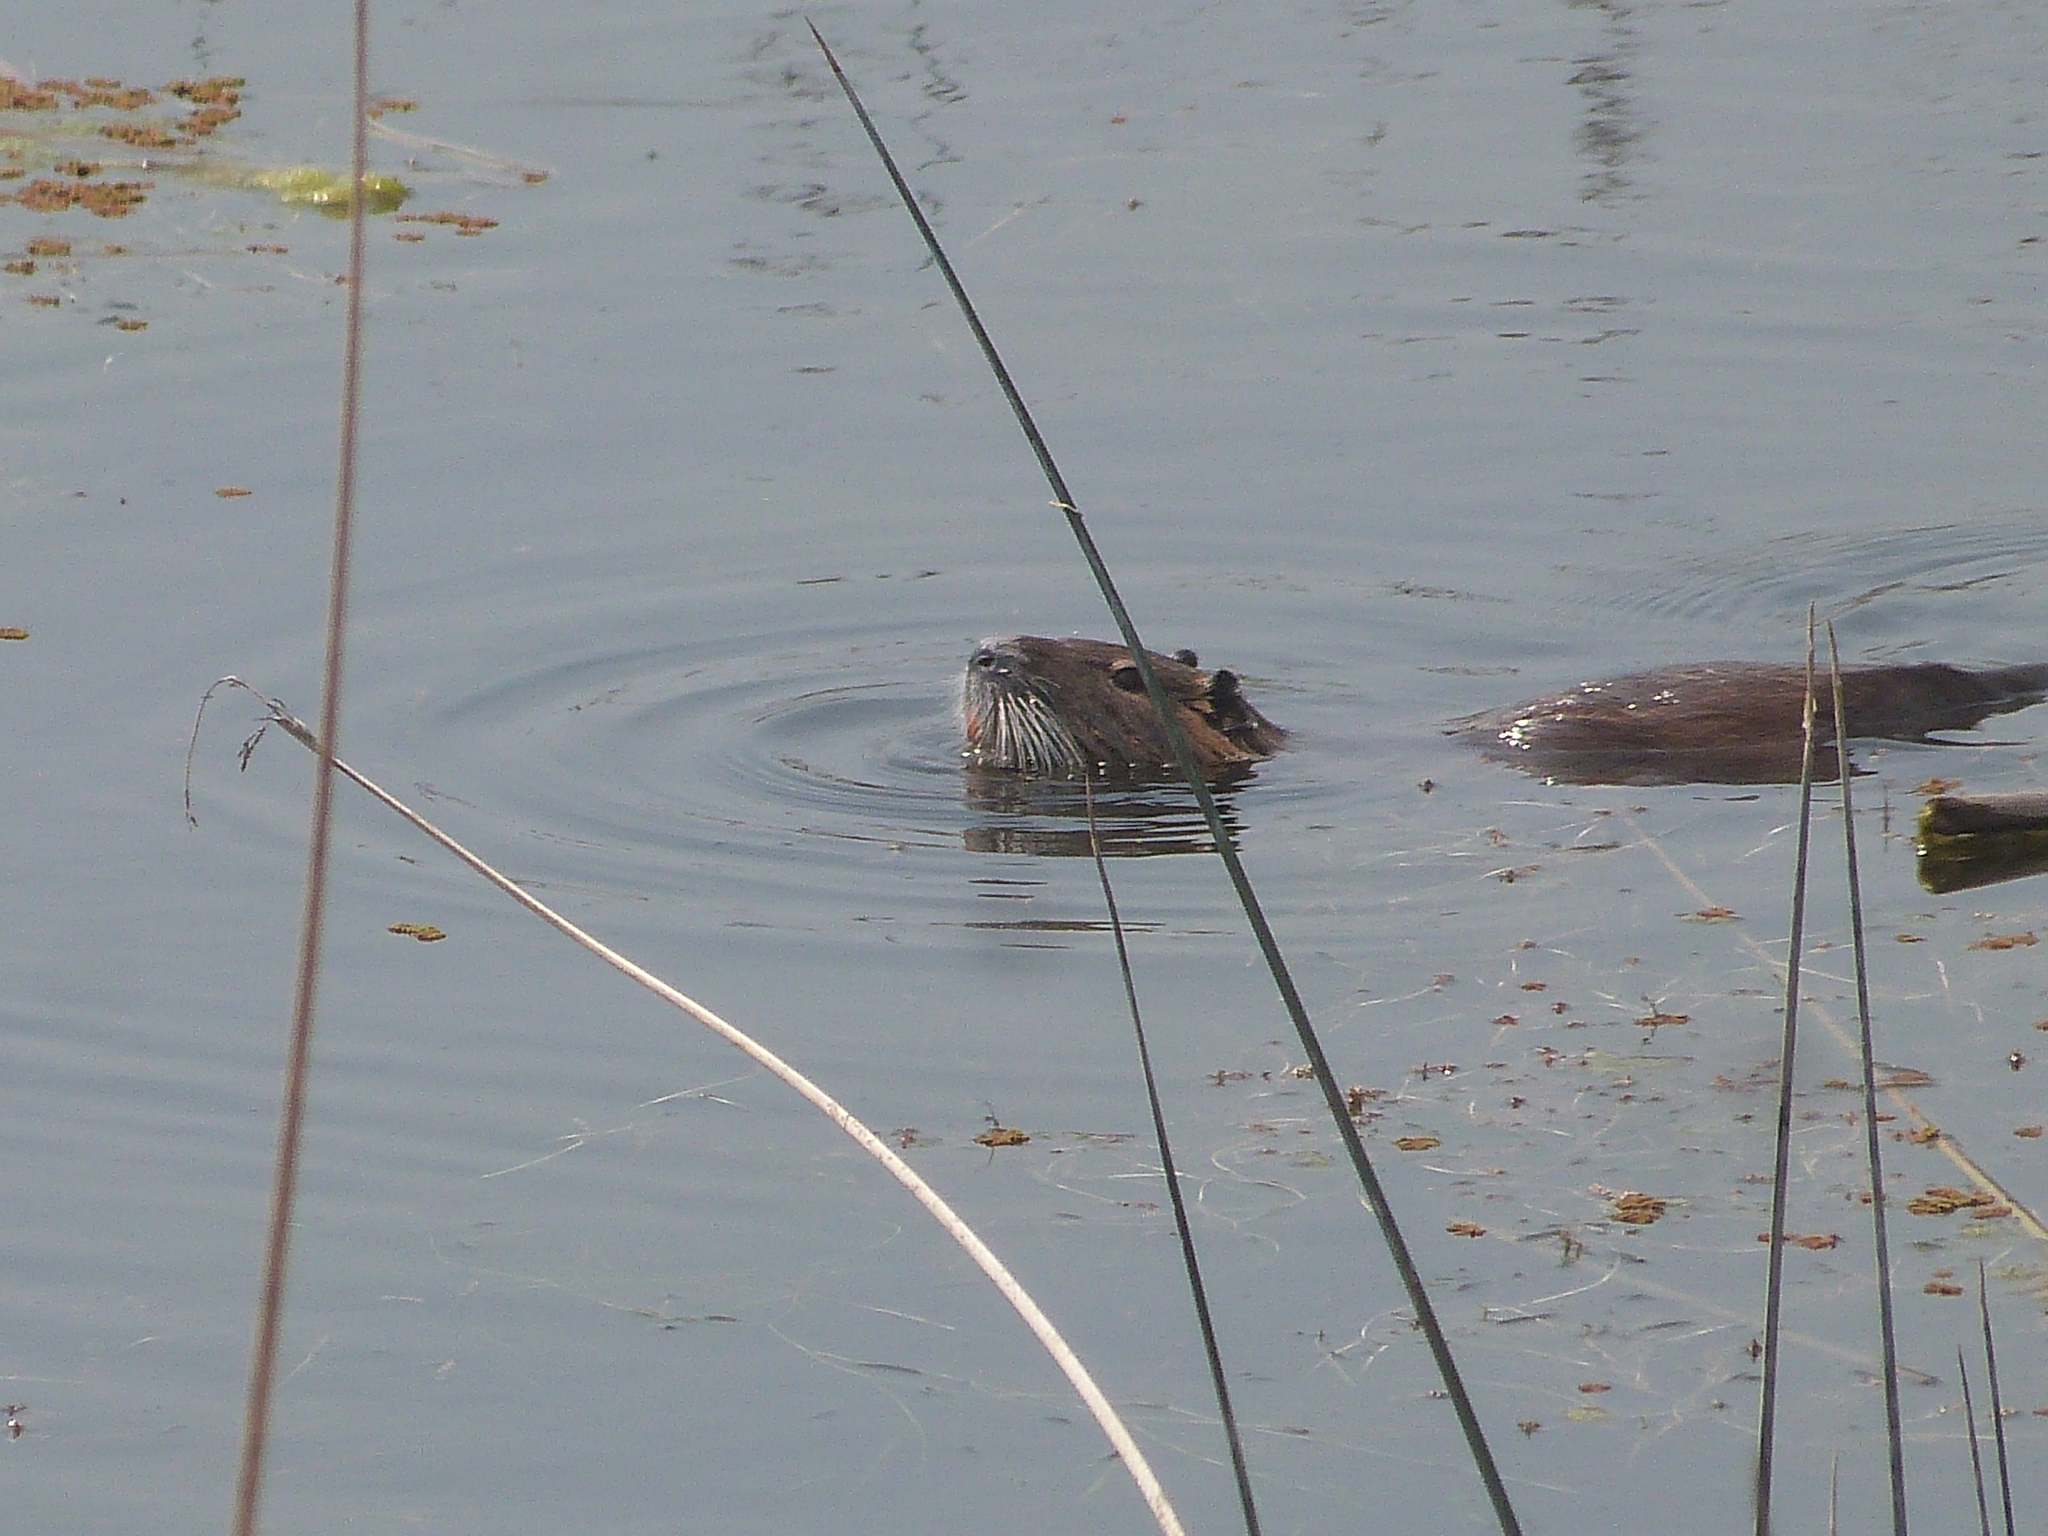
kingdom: Animalia
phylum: Chordata
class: Mammalia
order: Rodentia
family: Myocastoridae
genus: Myocastor
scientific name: Myocastor coypus
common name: Coypu
